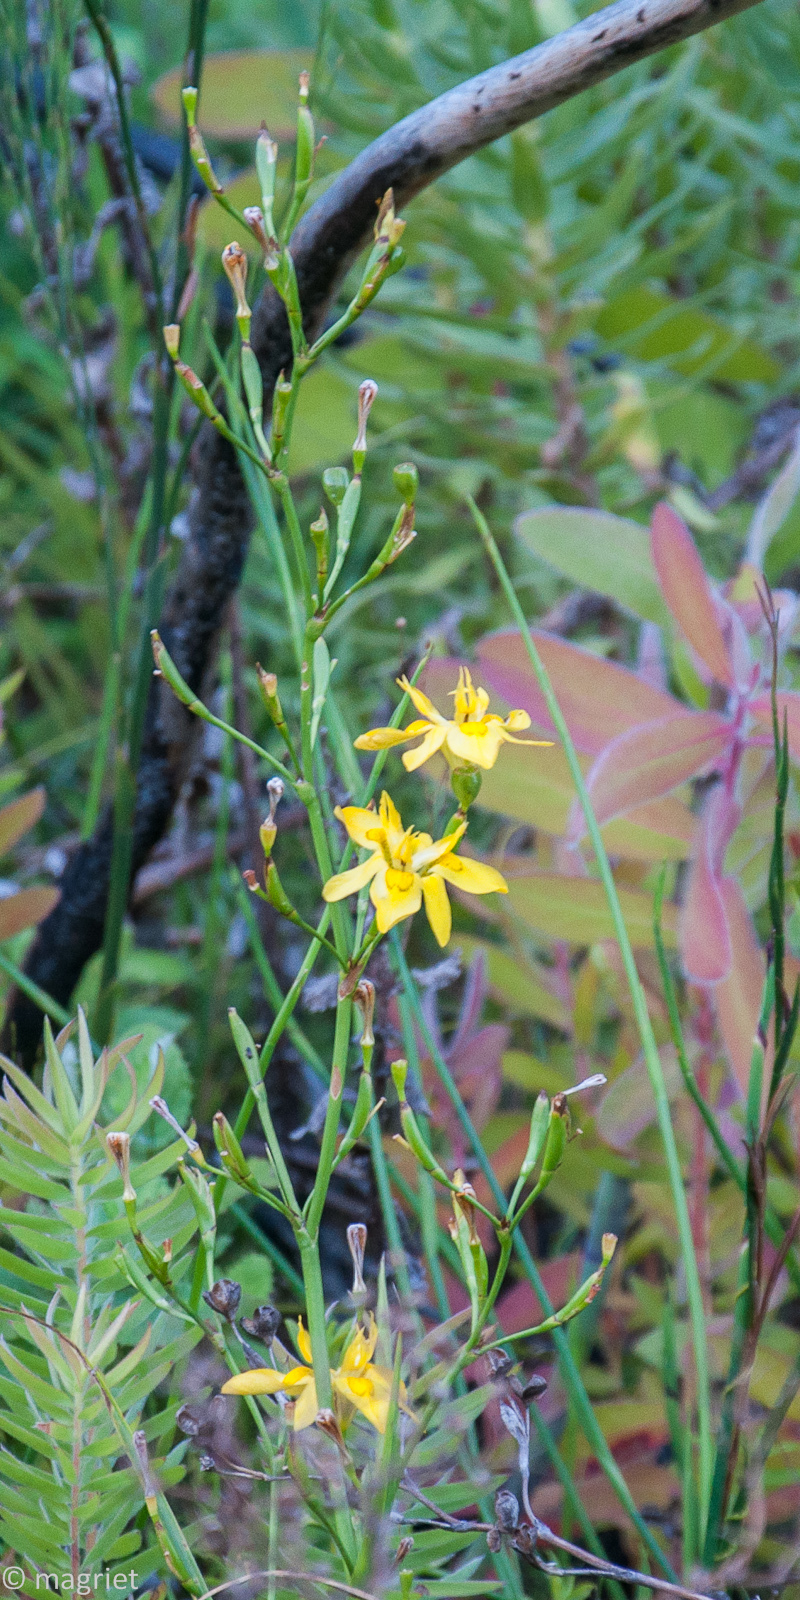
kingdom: Plantae
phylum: Tracheophyta
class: Liliopsida
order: Asparagales
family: Iridaceae
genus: Moraea
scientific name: Moraea ramosissima
